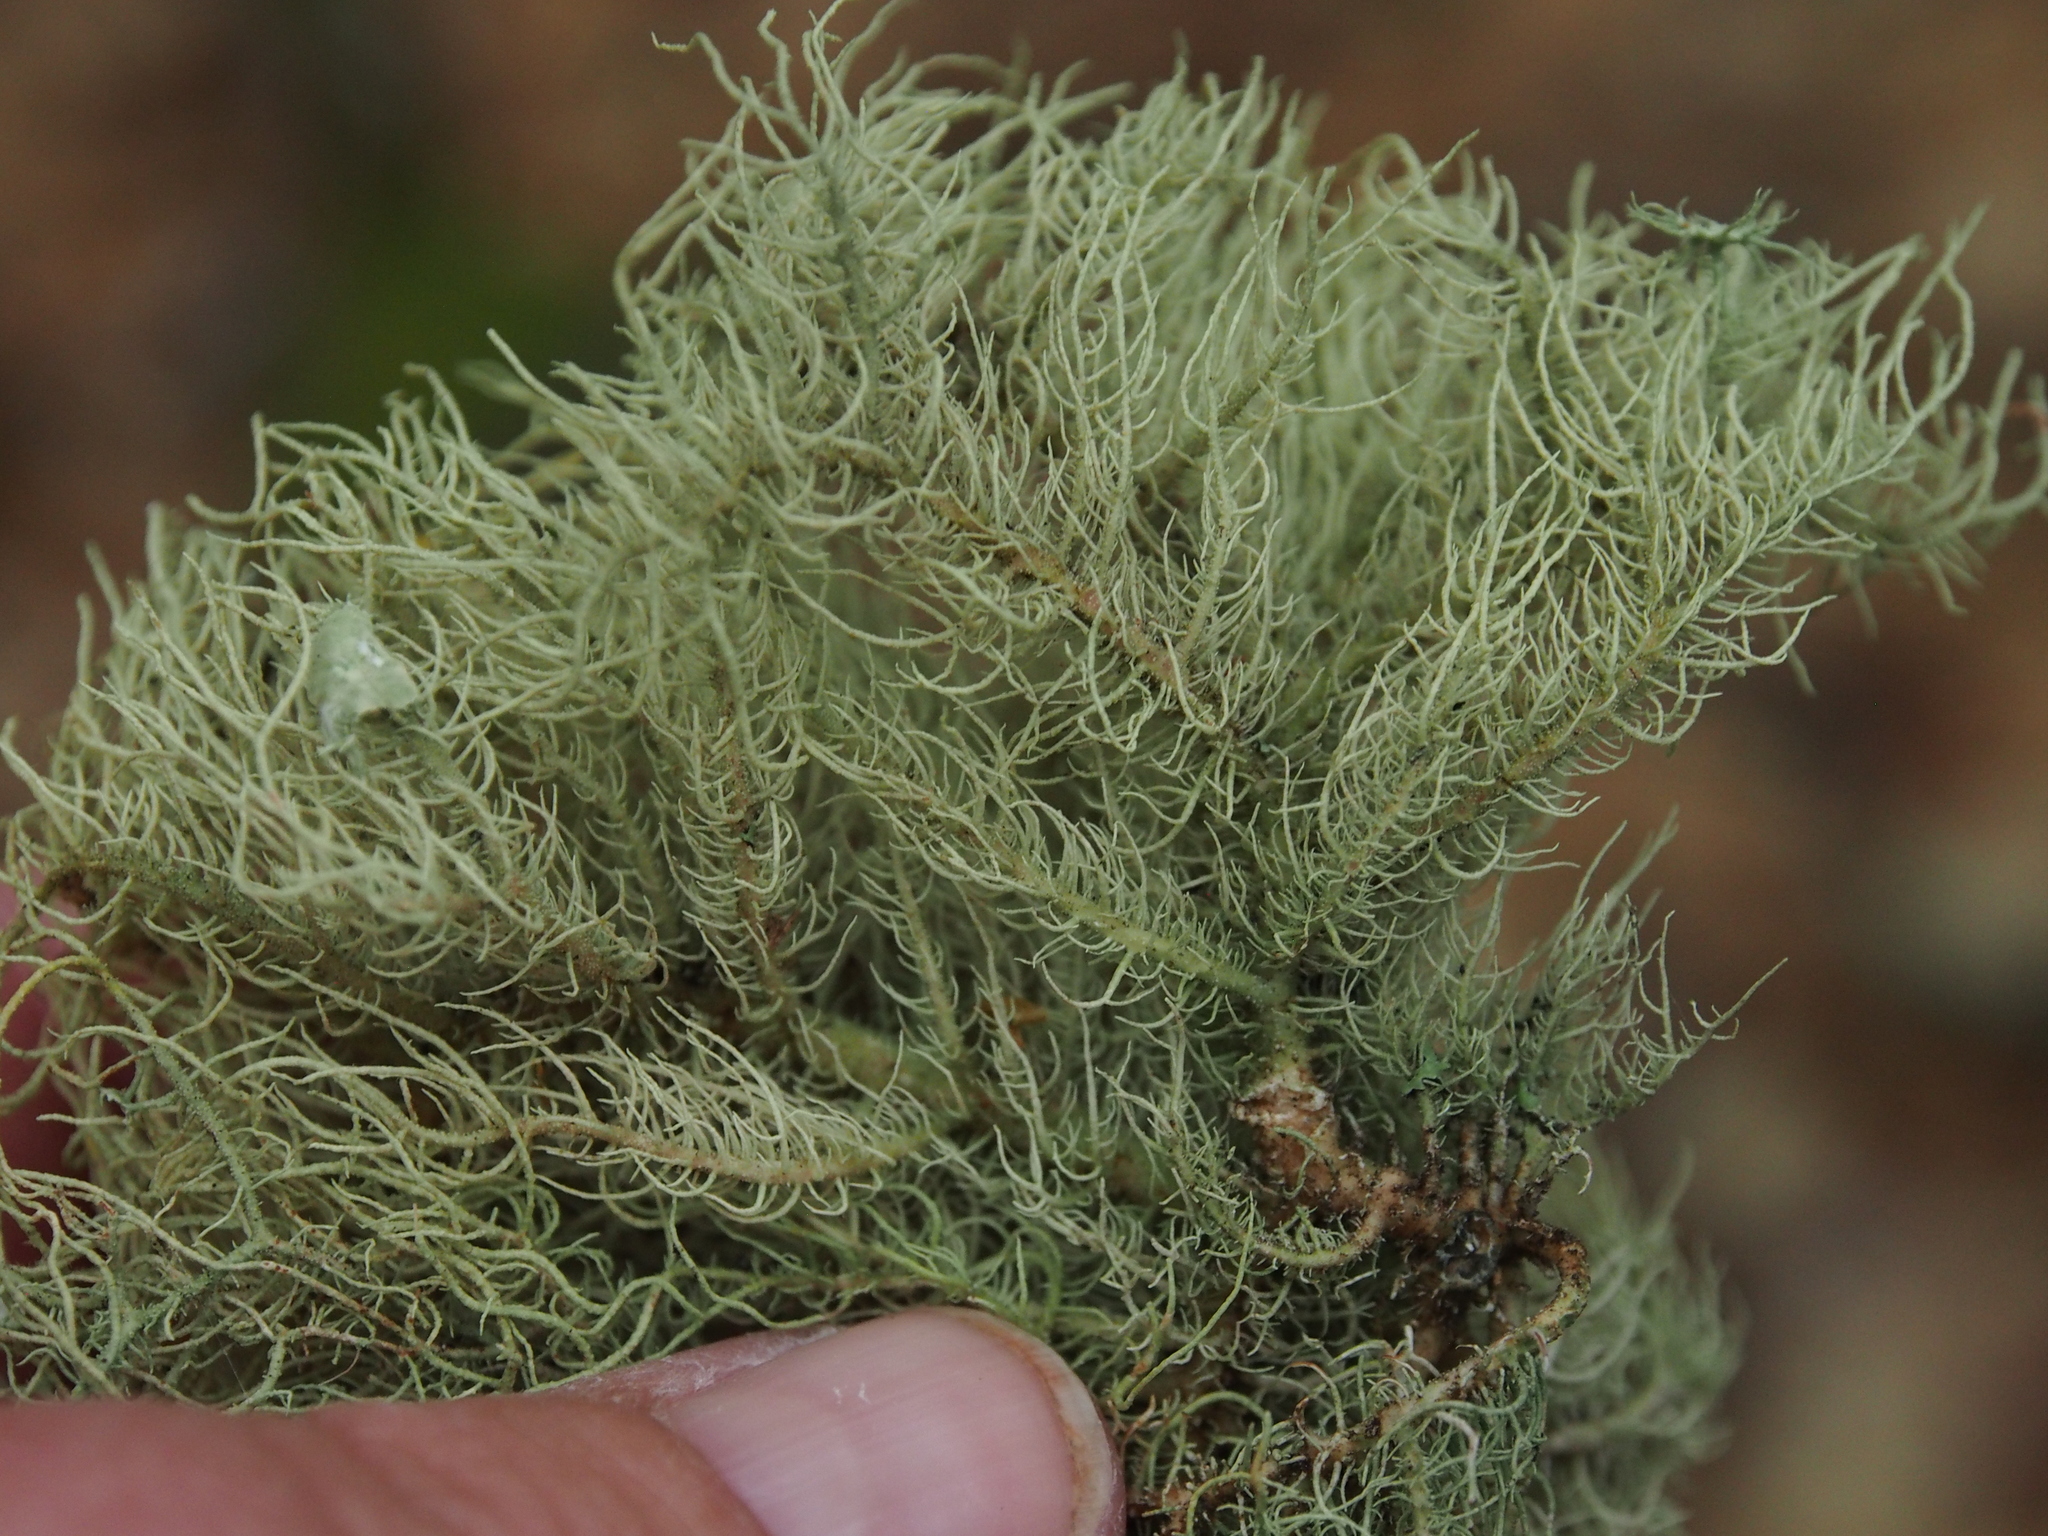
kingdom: Fungi
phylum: Ascomycota
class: Lecanoromycetes
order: Lecanorales
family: Parmeliaceae
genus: Usnea
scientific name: Usnea strigosa
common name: Bushy beard lichen
